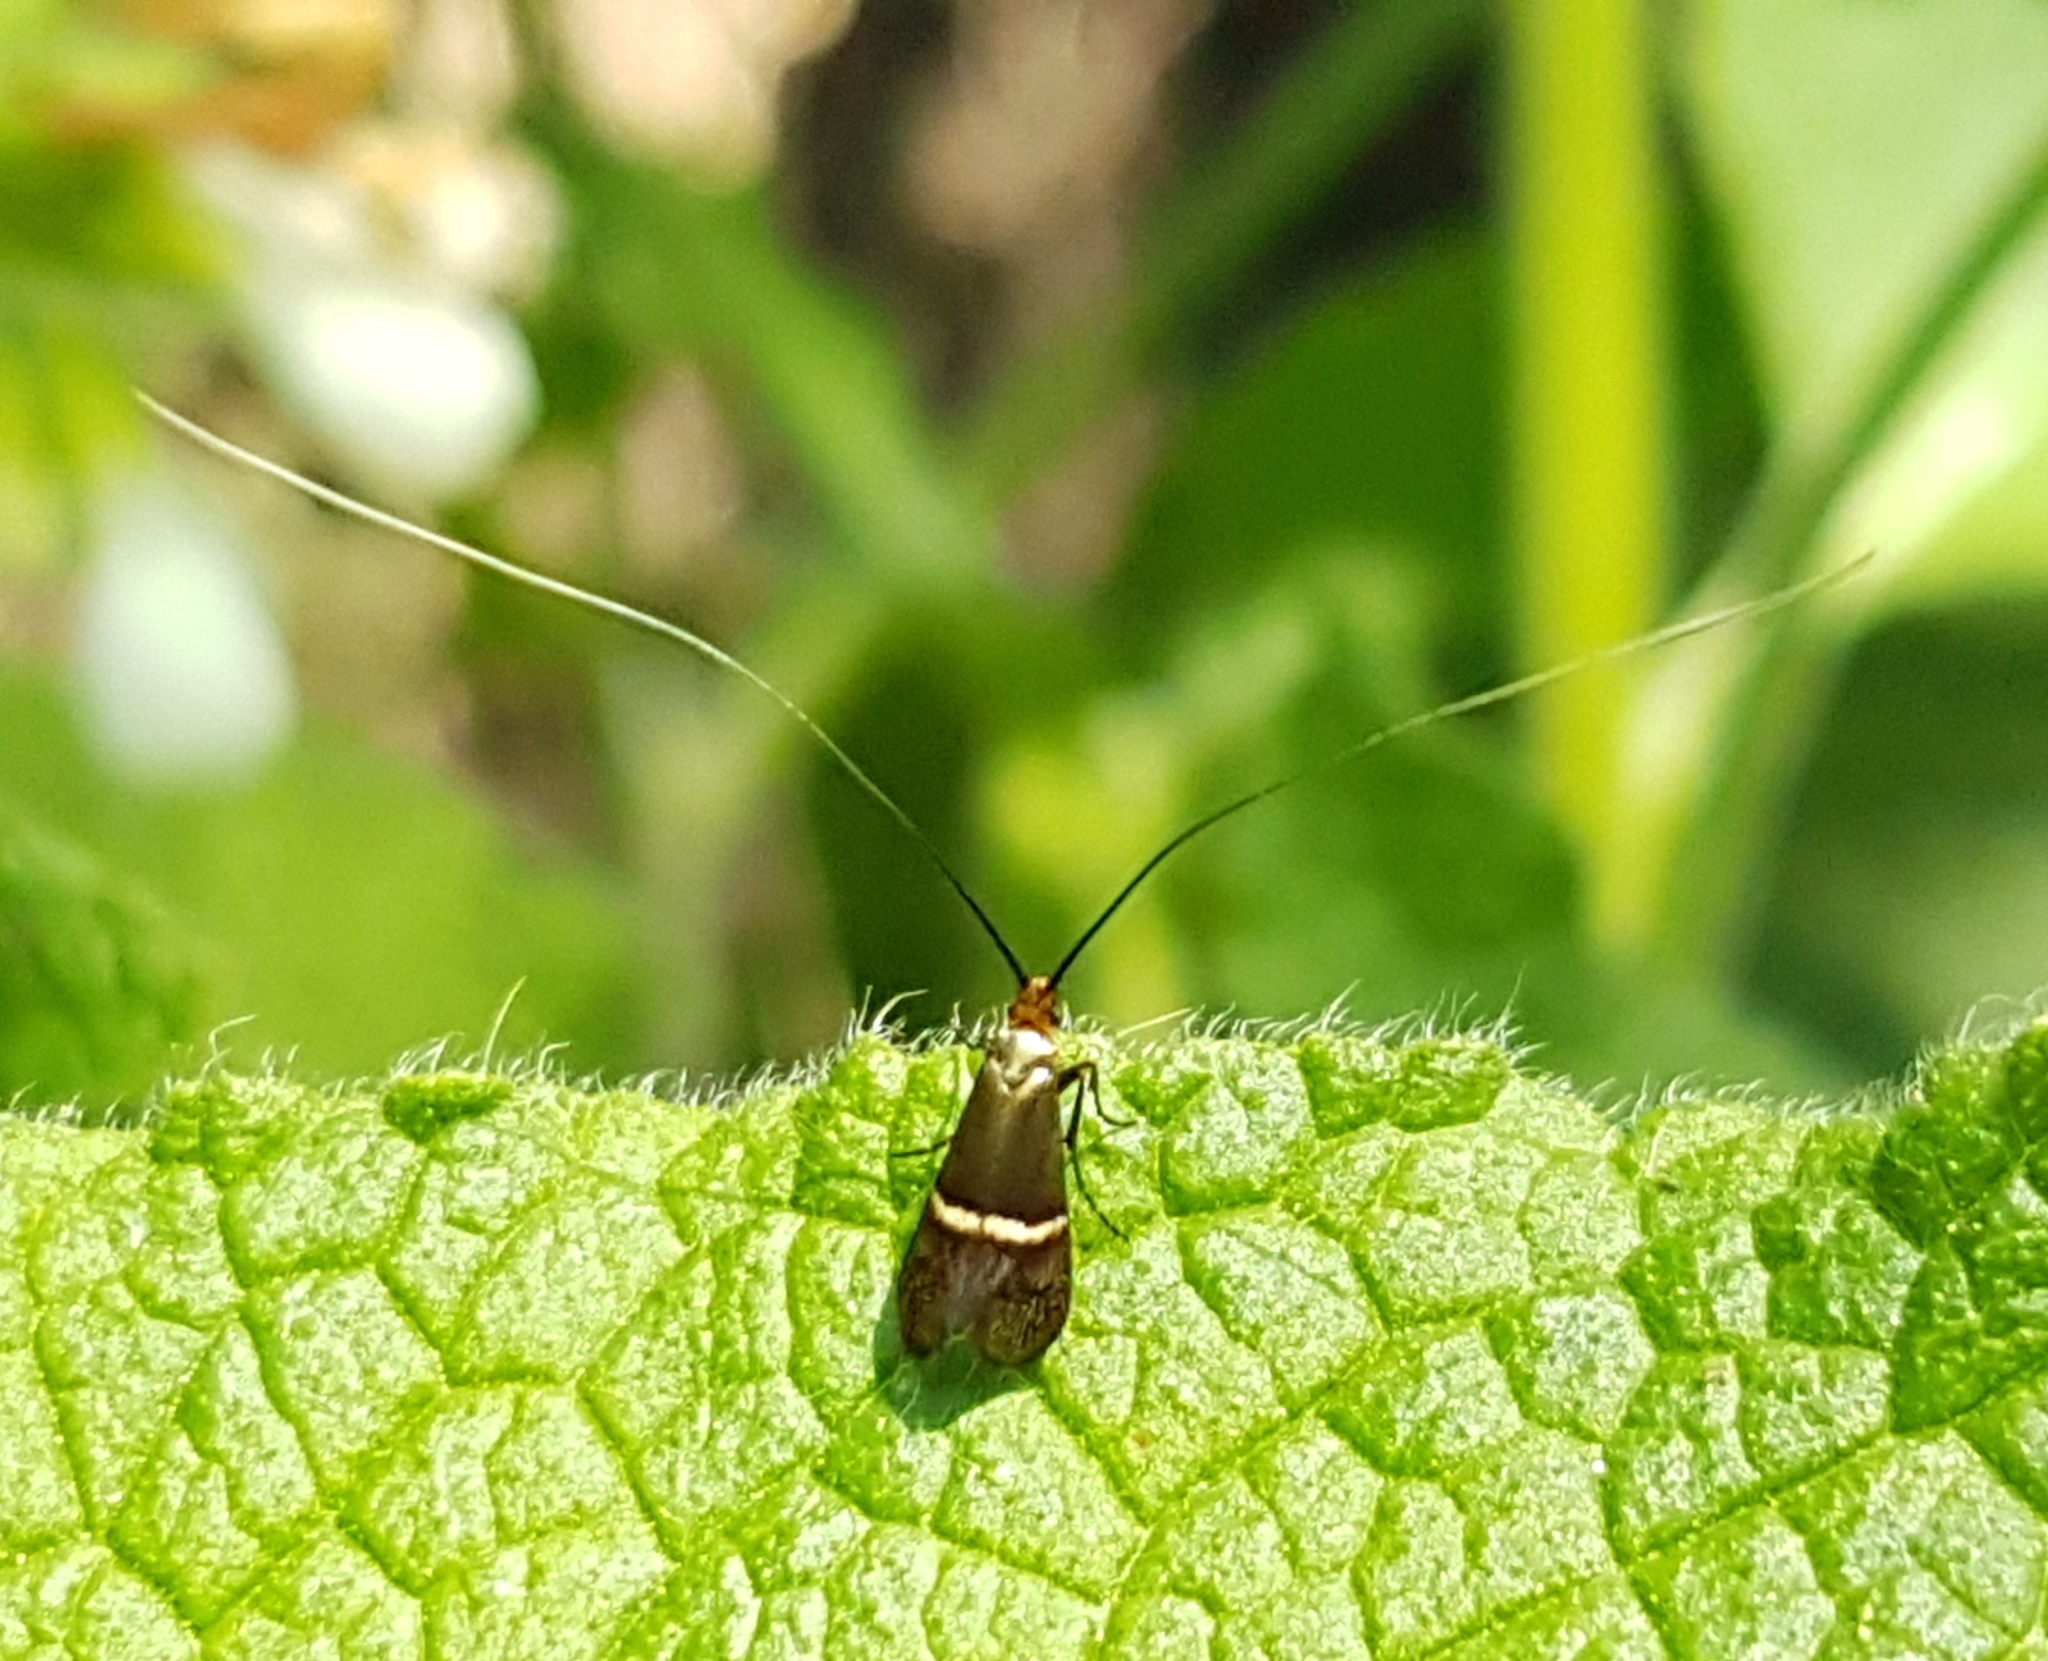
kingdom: Animalia
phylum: Arthropoda
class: Insecta
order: Lepidoptera
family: Adelidae
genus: Adela
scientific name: Adela australis
